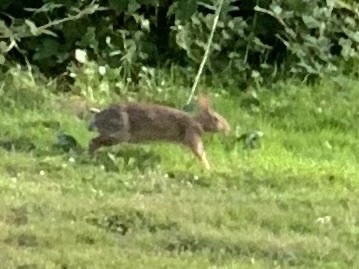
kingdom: Animalia
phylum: Chordata
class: Mammalia
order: Lagomorpha
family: Leporidae
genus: Sylvilagus
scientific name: Sylvilagus floridanus
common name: Eastern cottontail
